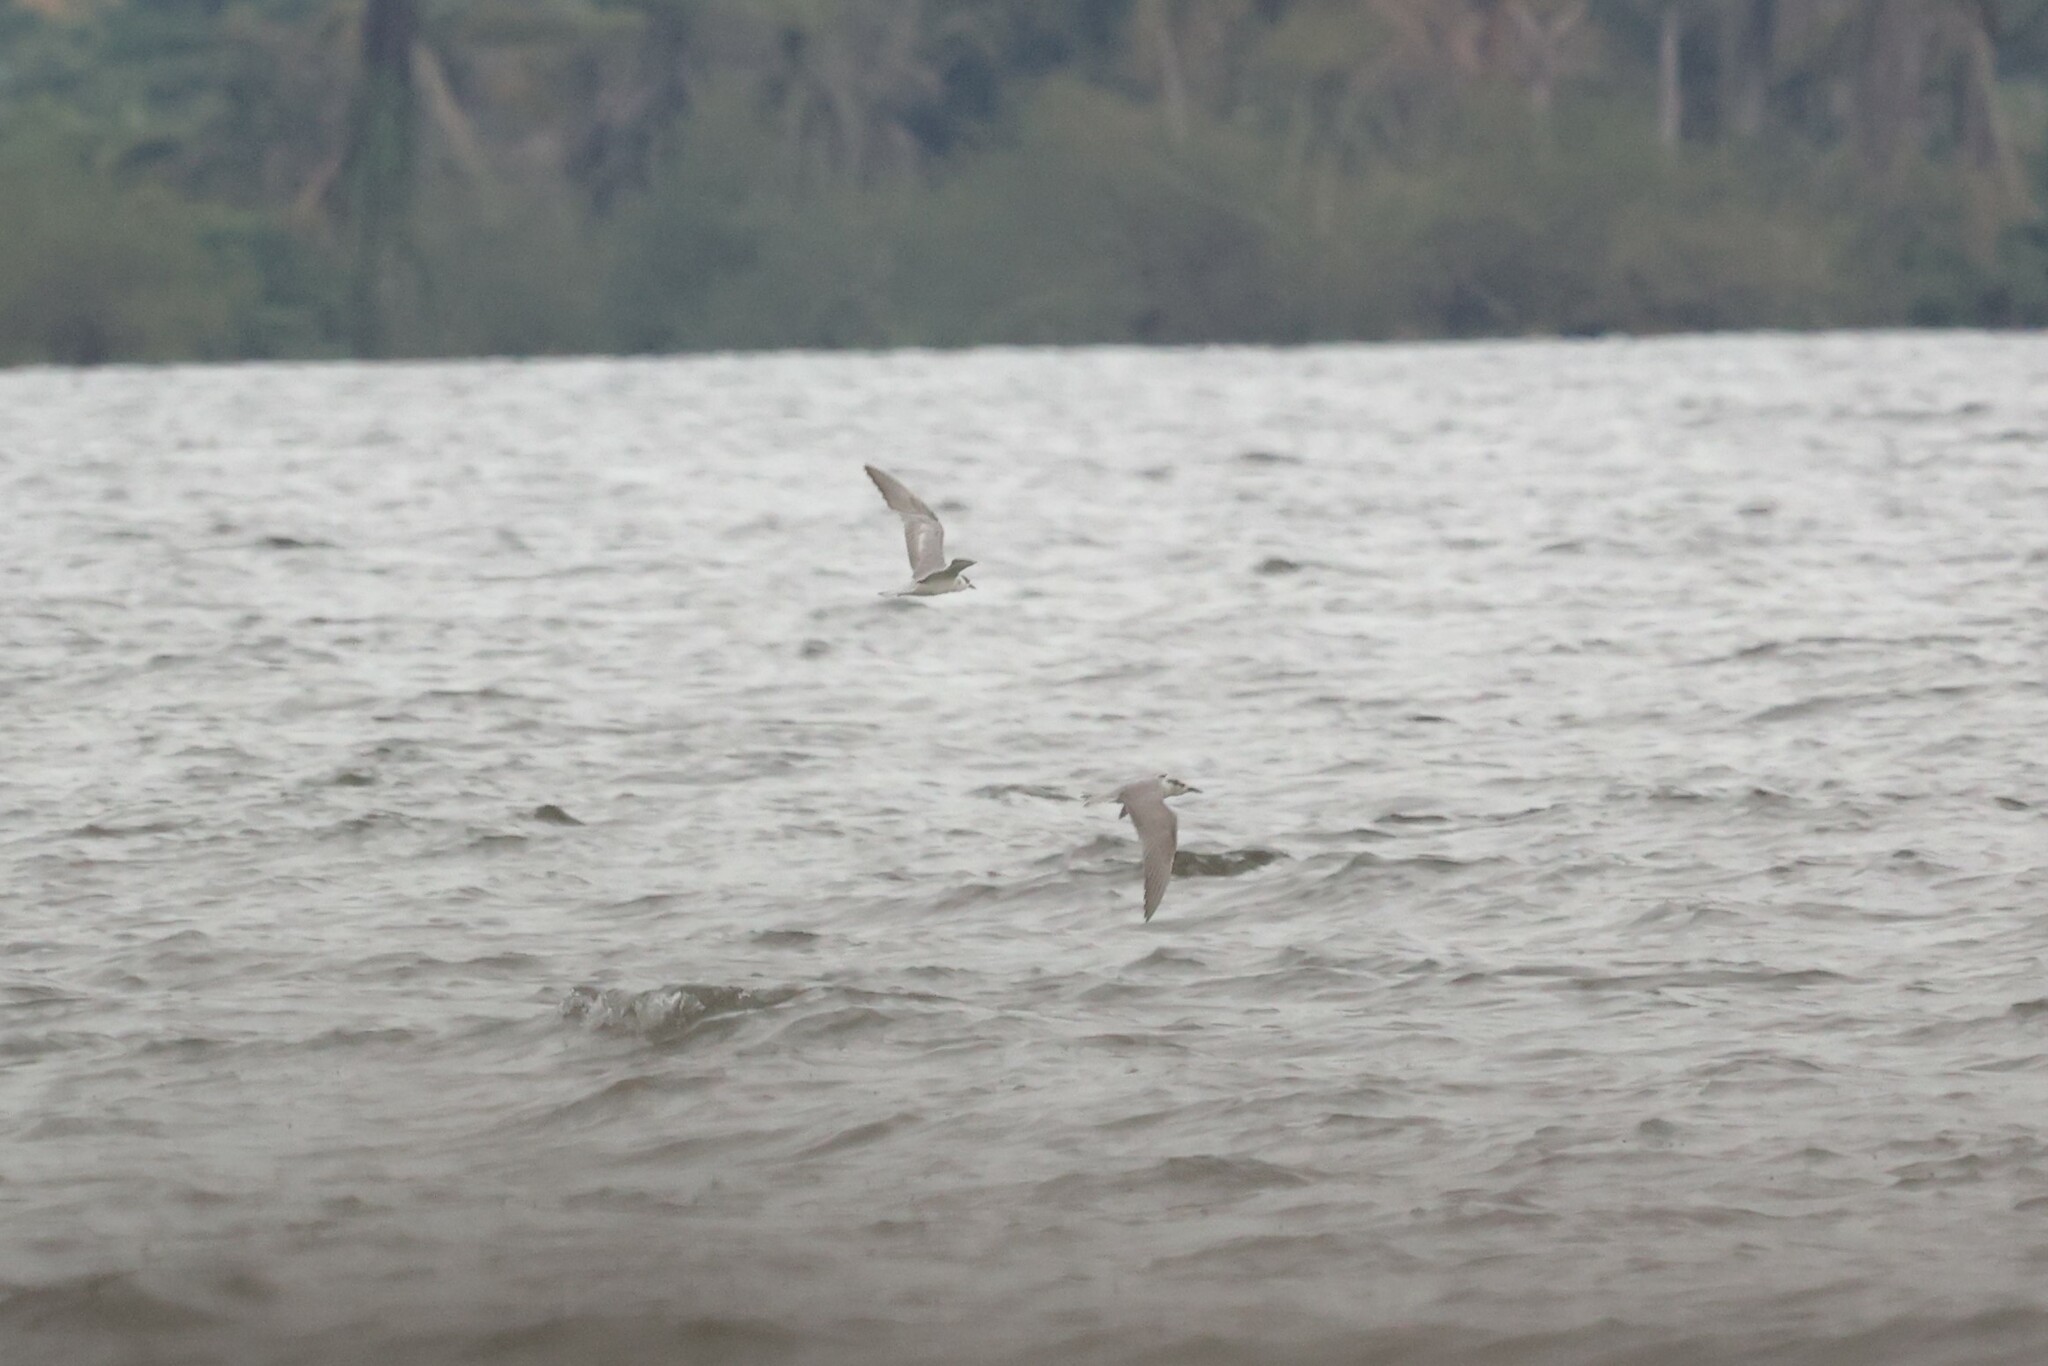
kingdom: Animalia
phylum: Chordata
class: Aves
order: Charadriiformes
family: Laridae
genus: Chlidonias
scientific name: Chlidonias hybrida
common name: Whiskered tern
